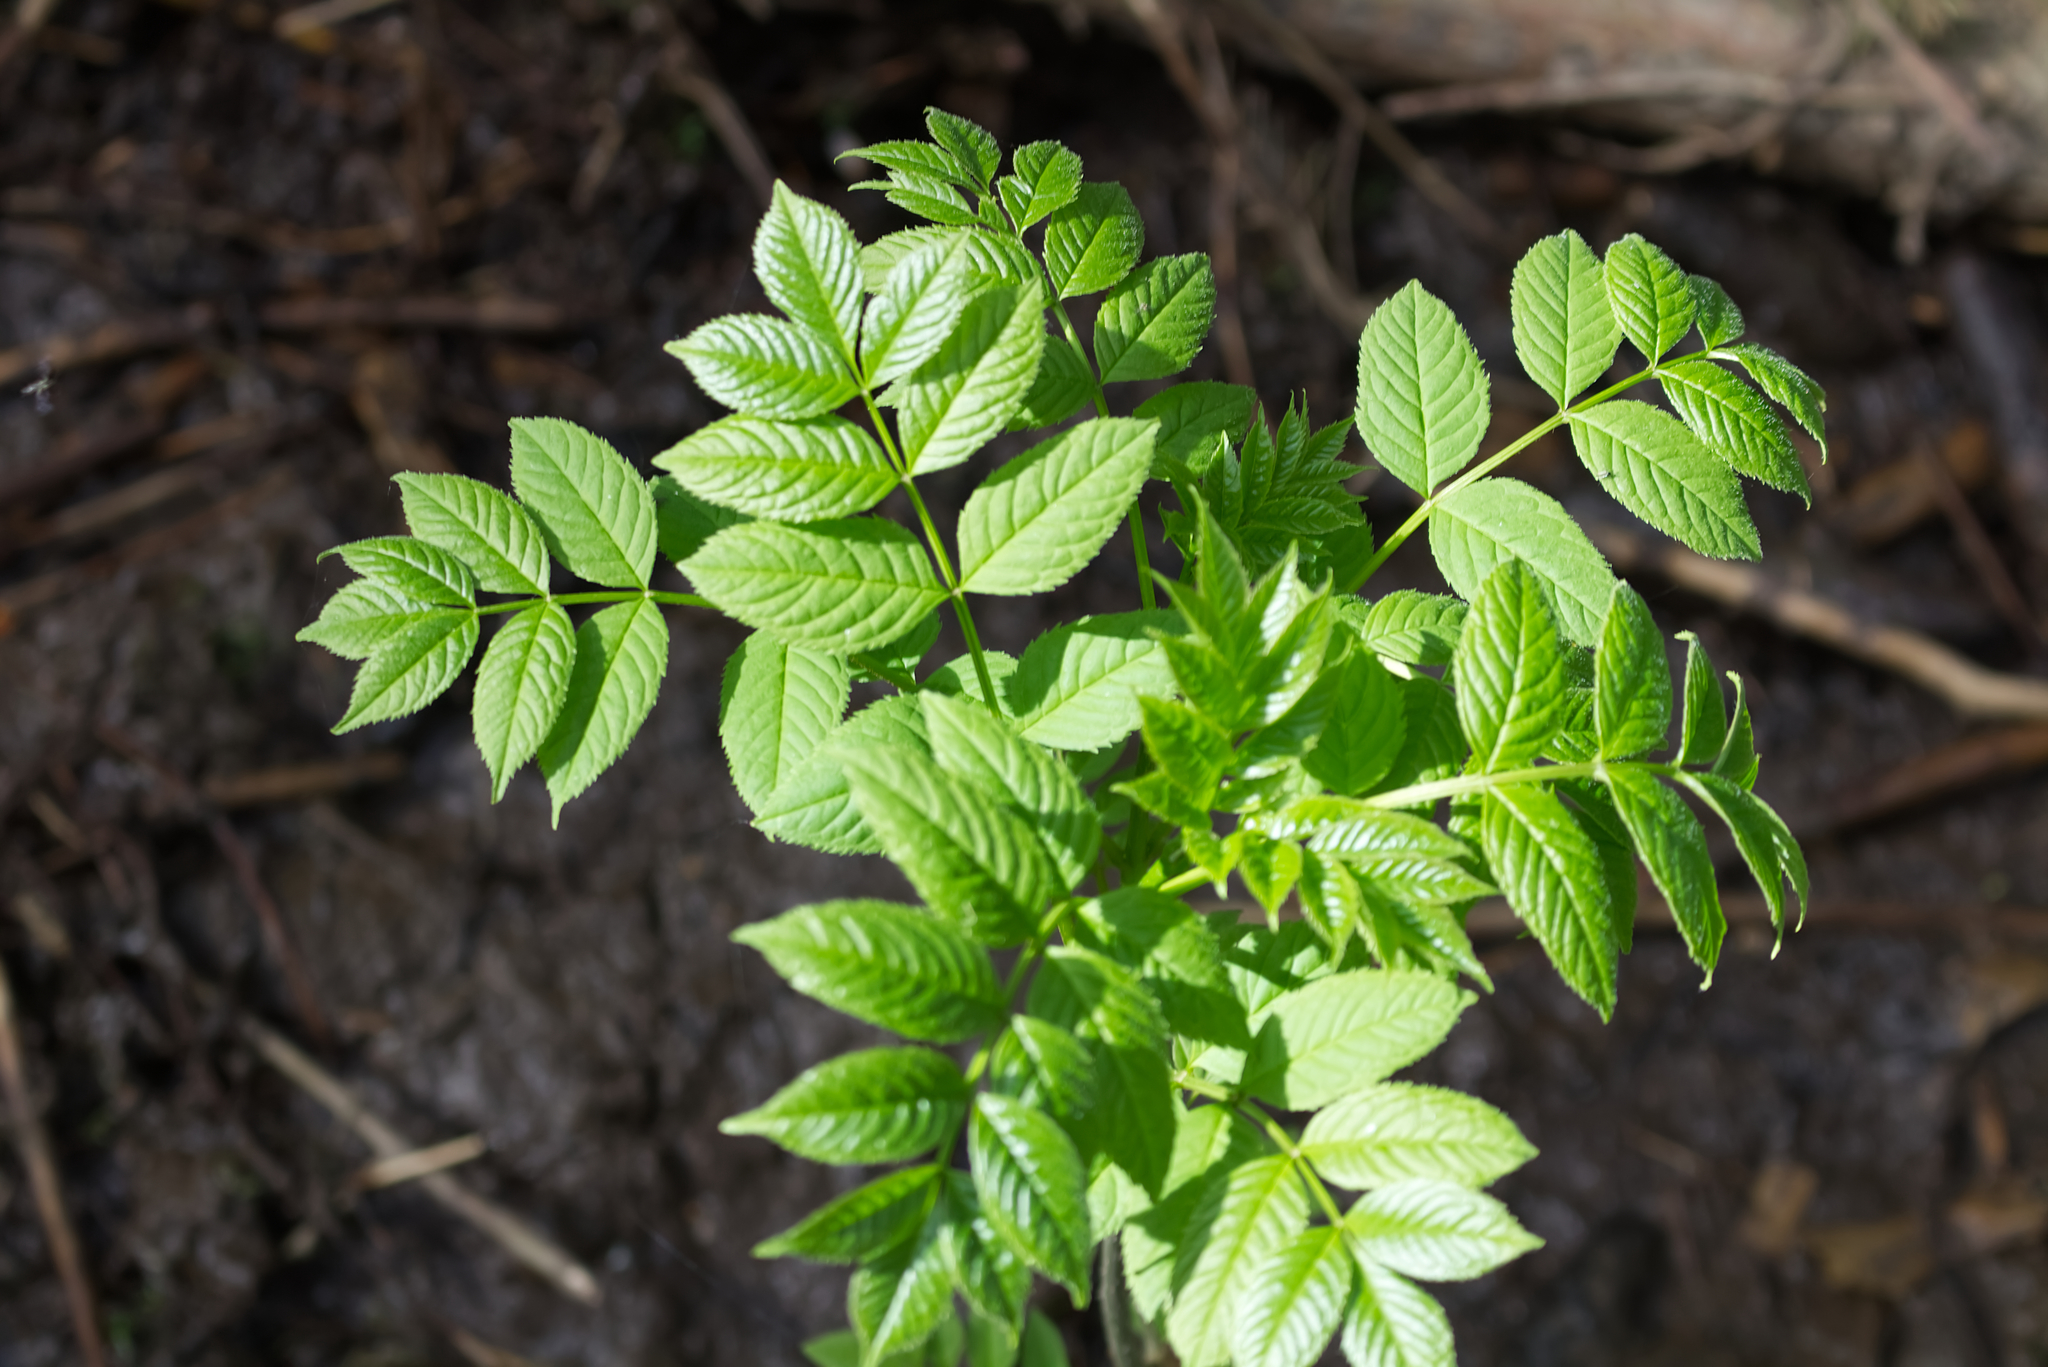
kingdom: Plantae
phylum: Tracheophyta
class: Magnoliopsida
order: Lamiales
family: Oleaceae
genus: Fraxinus
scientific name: Fraxinus excelsior
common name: European ash
